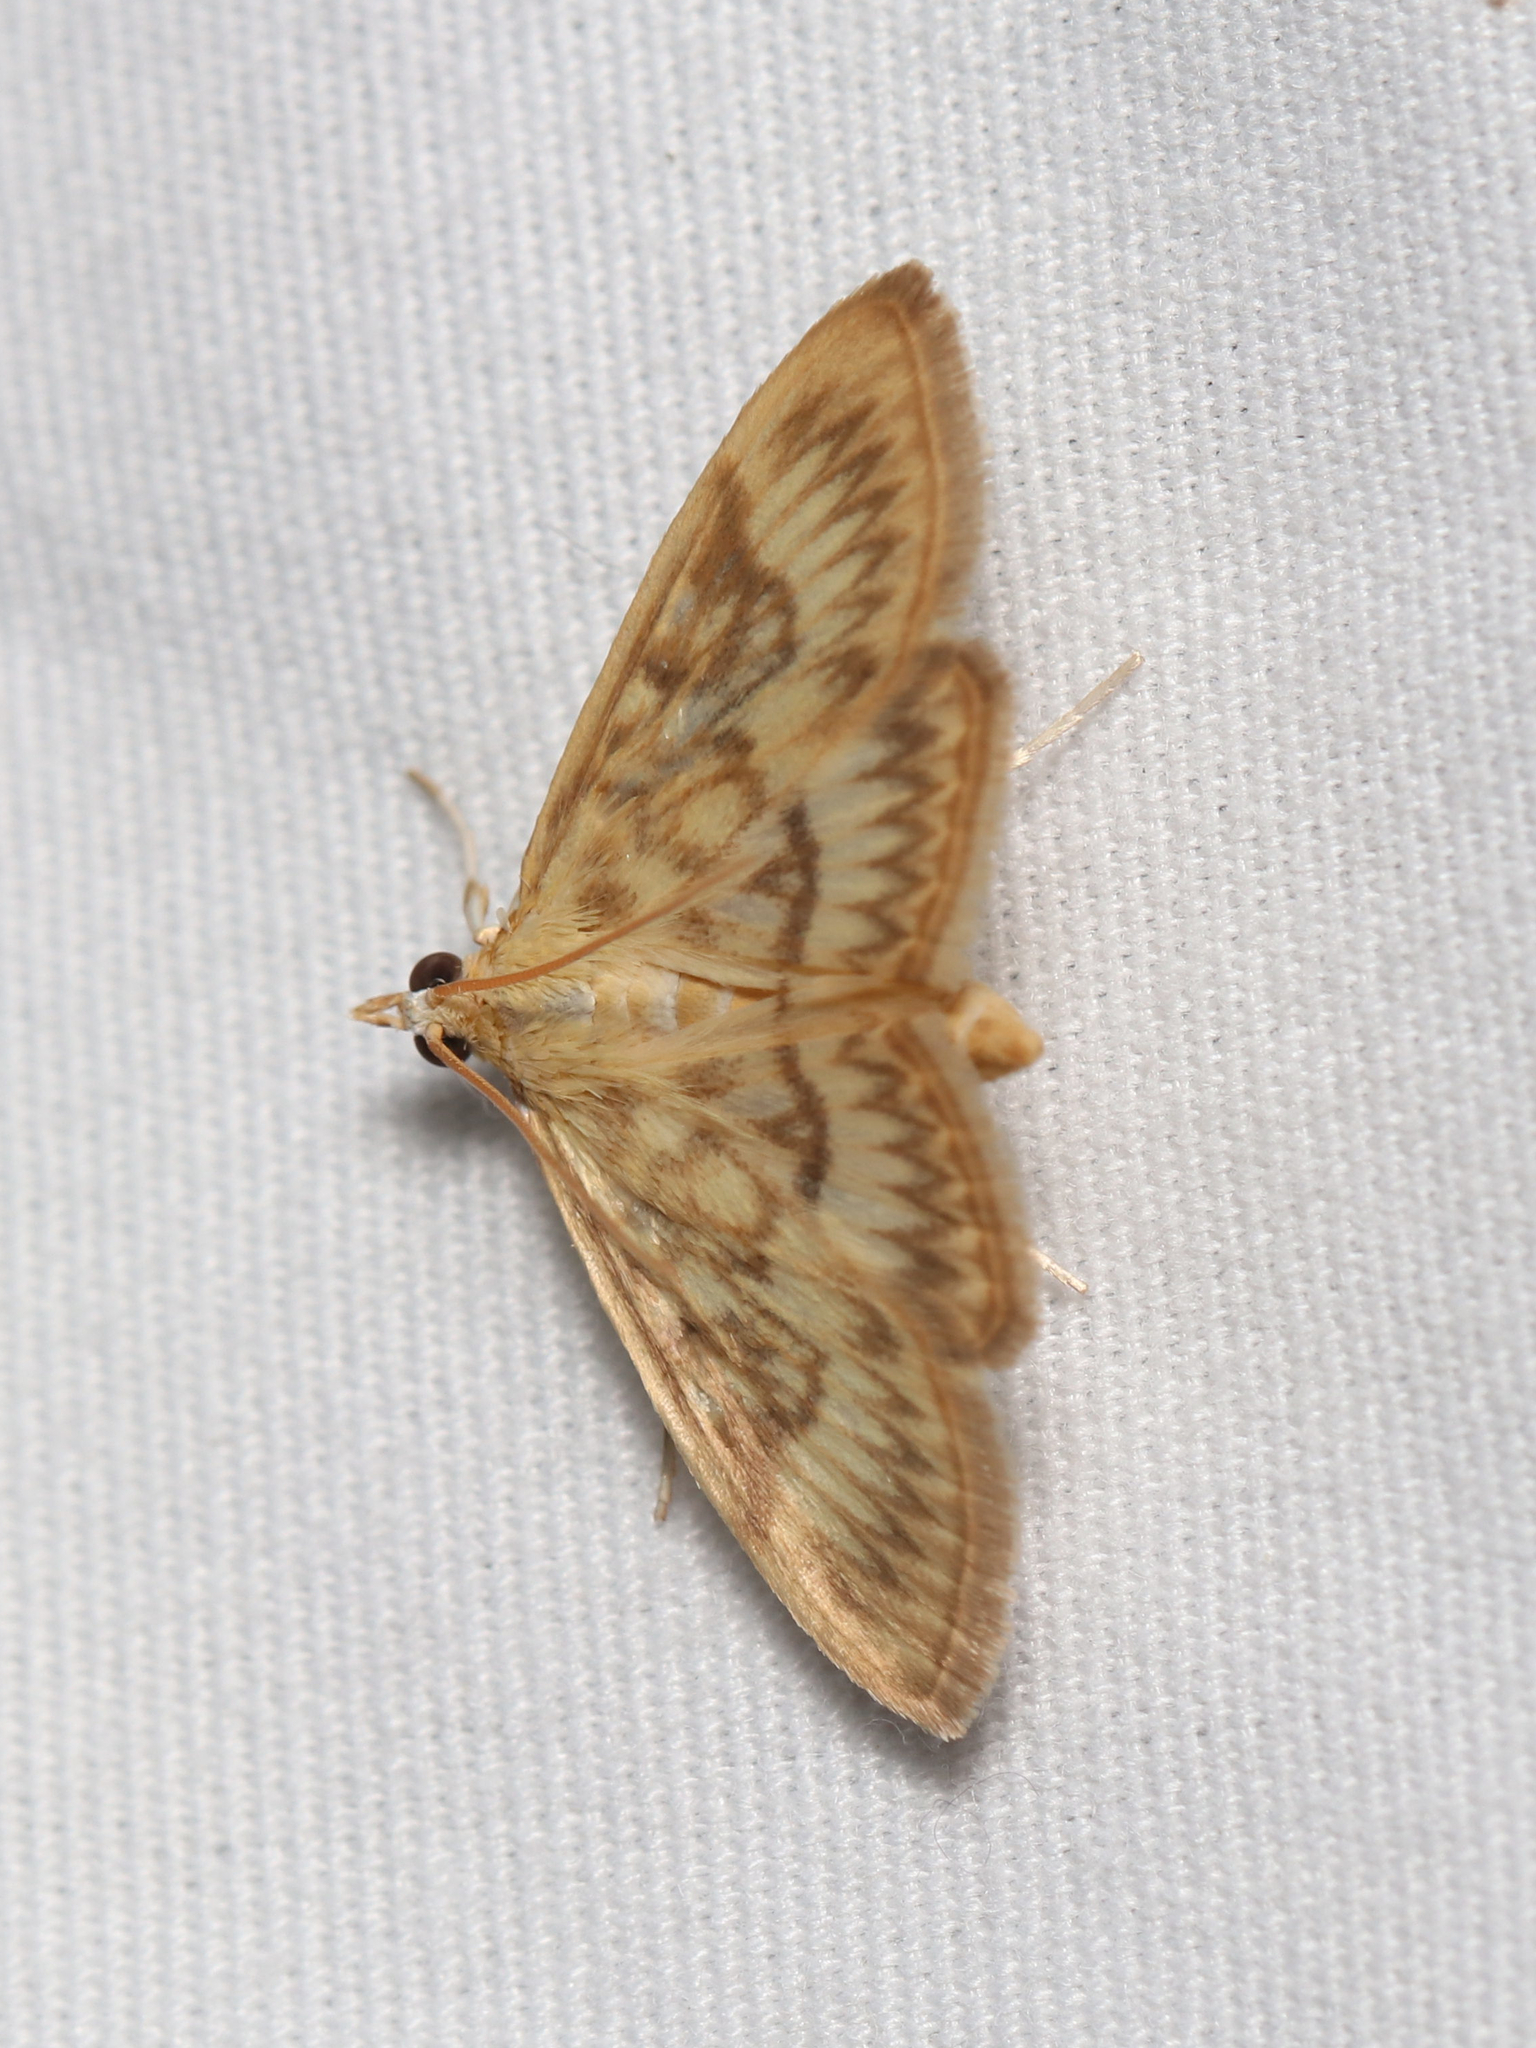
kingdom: Animalia
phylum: Arthropoda
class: Insecta
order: Lepidoptera
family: Crambidae
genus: Crocidophora
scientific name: Crocidophora serratissimalis
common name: Saw-toothed crocidophora moth
